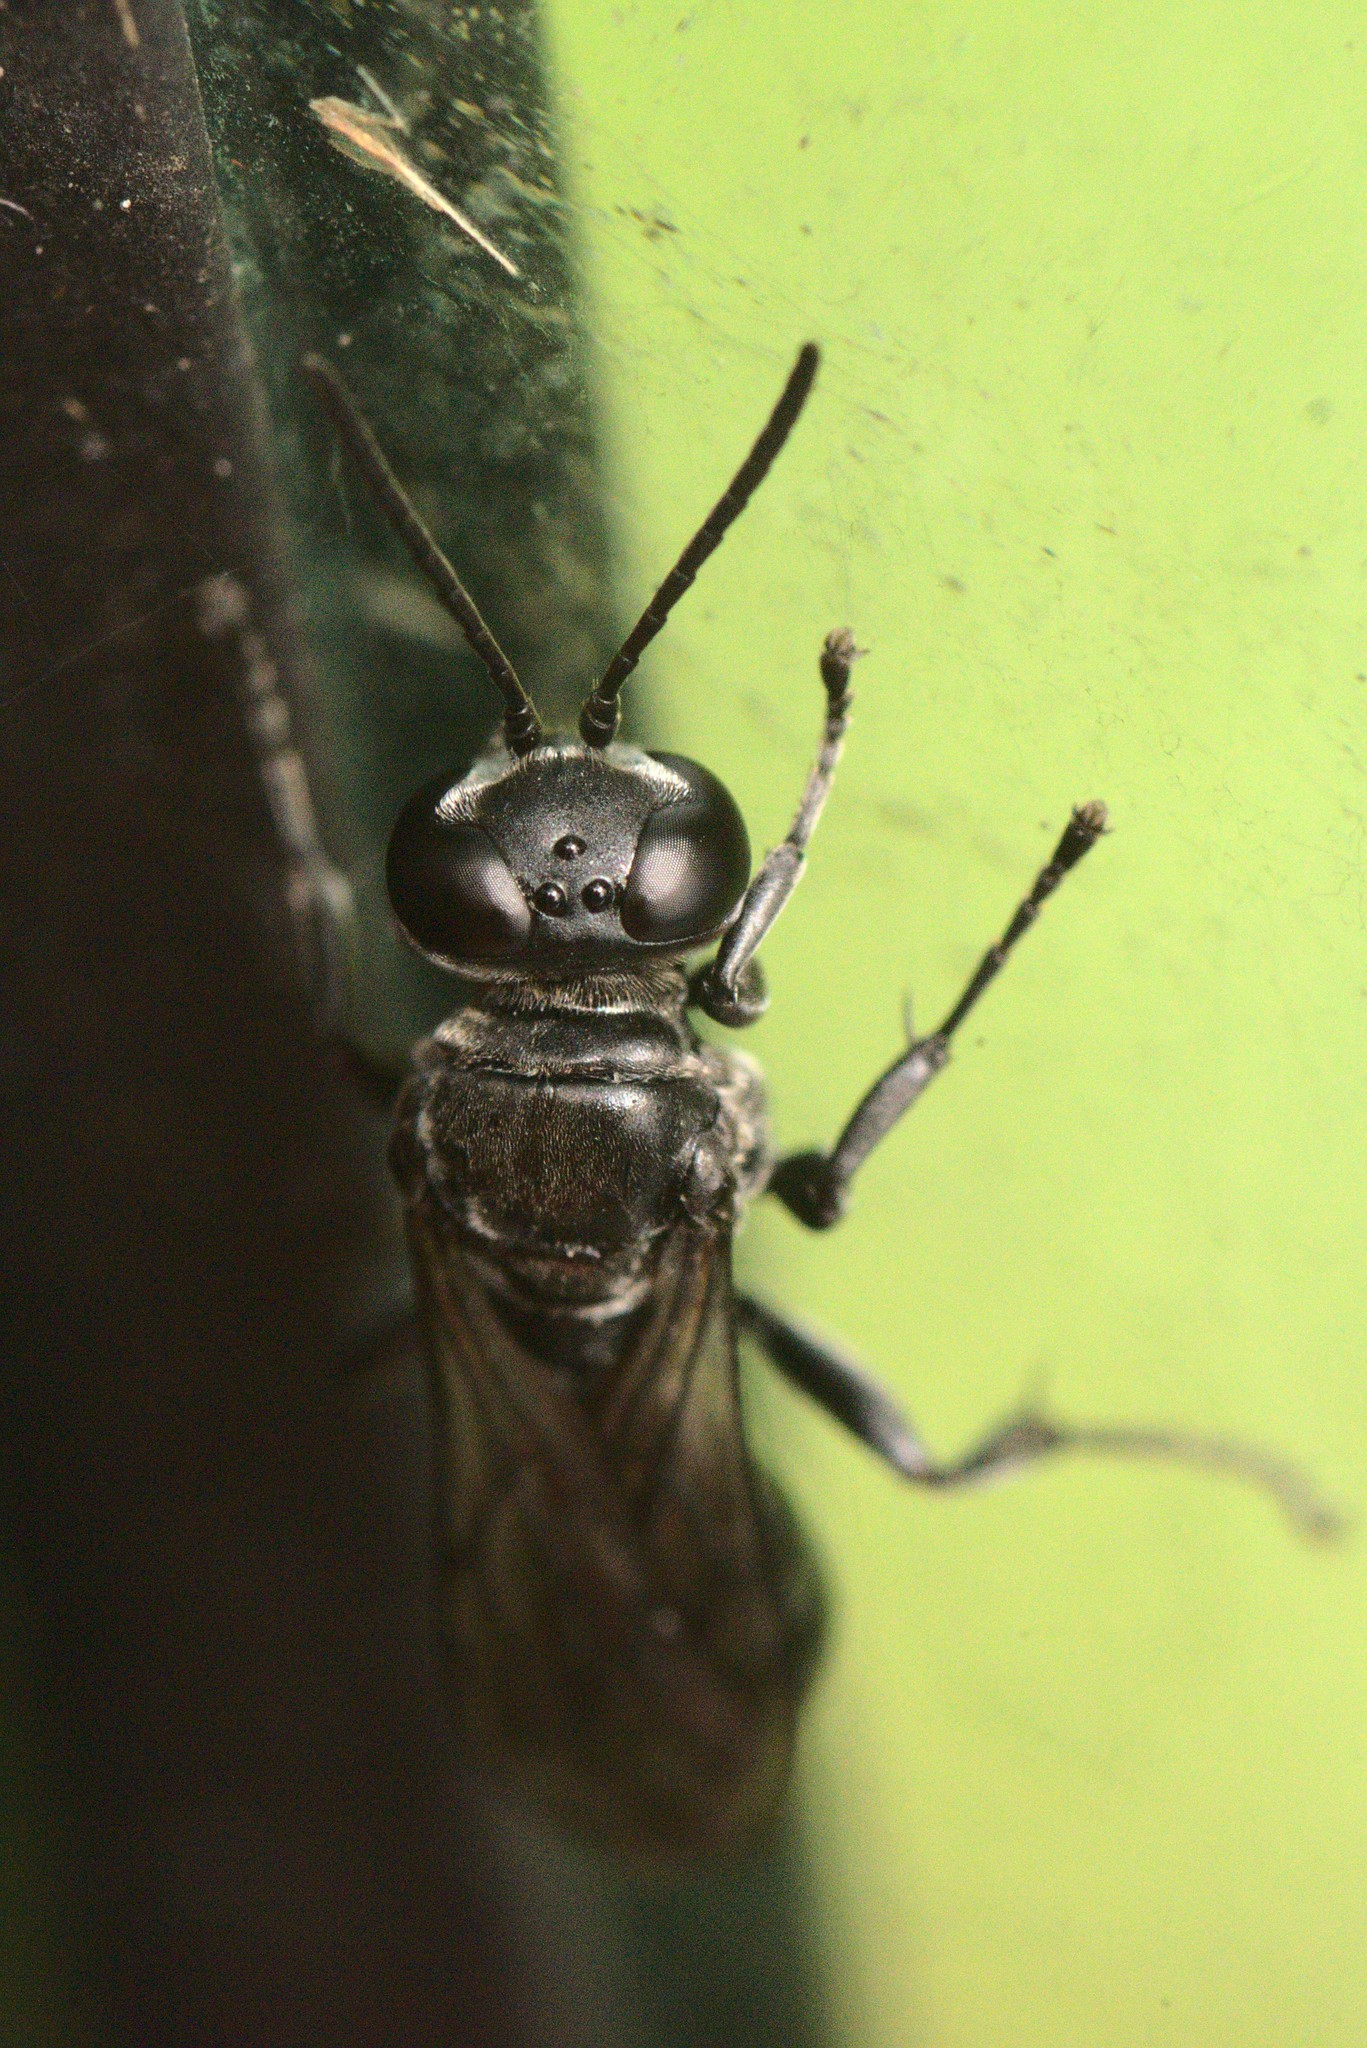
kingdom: Animalia
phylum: Arthropoda
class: Insecta
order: Hymenoptera
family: Crabronidae
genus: Pison
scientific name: Pison morosum
